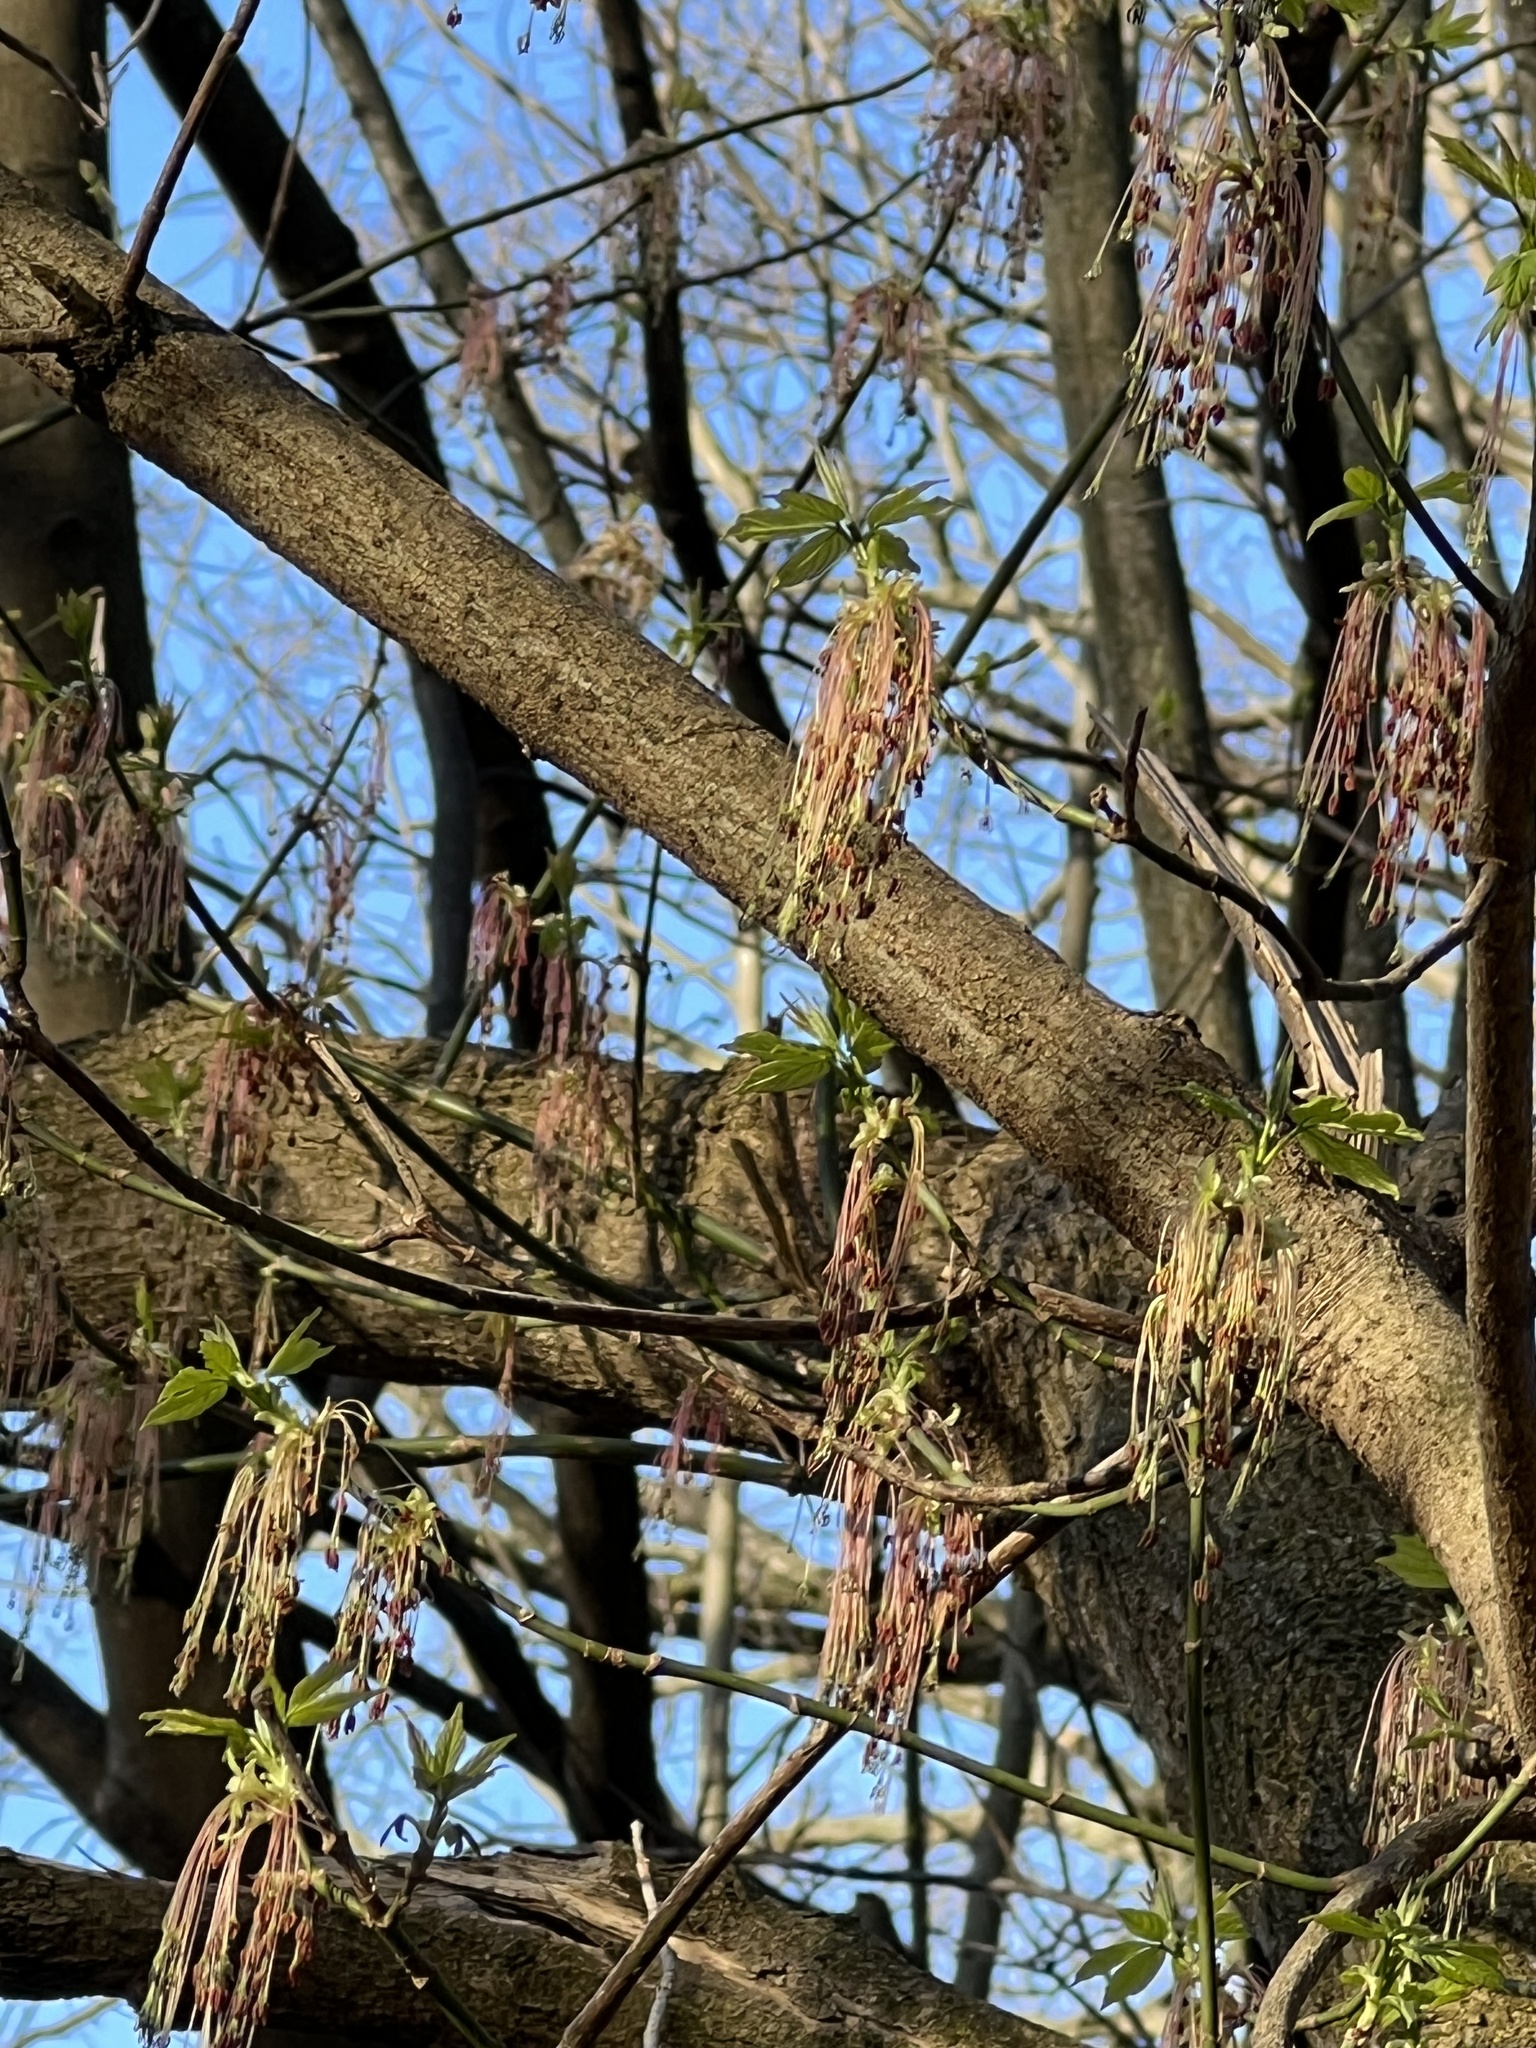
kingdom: Plantae
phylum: Tracheophyta
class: Magnoliopsida
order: Sapindales
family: Sapindaceae
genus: Acer
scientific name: Acer negundo
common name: Ashleaf maple
